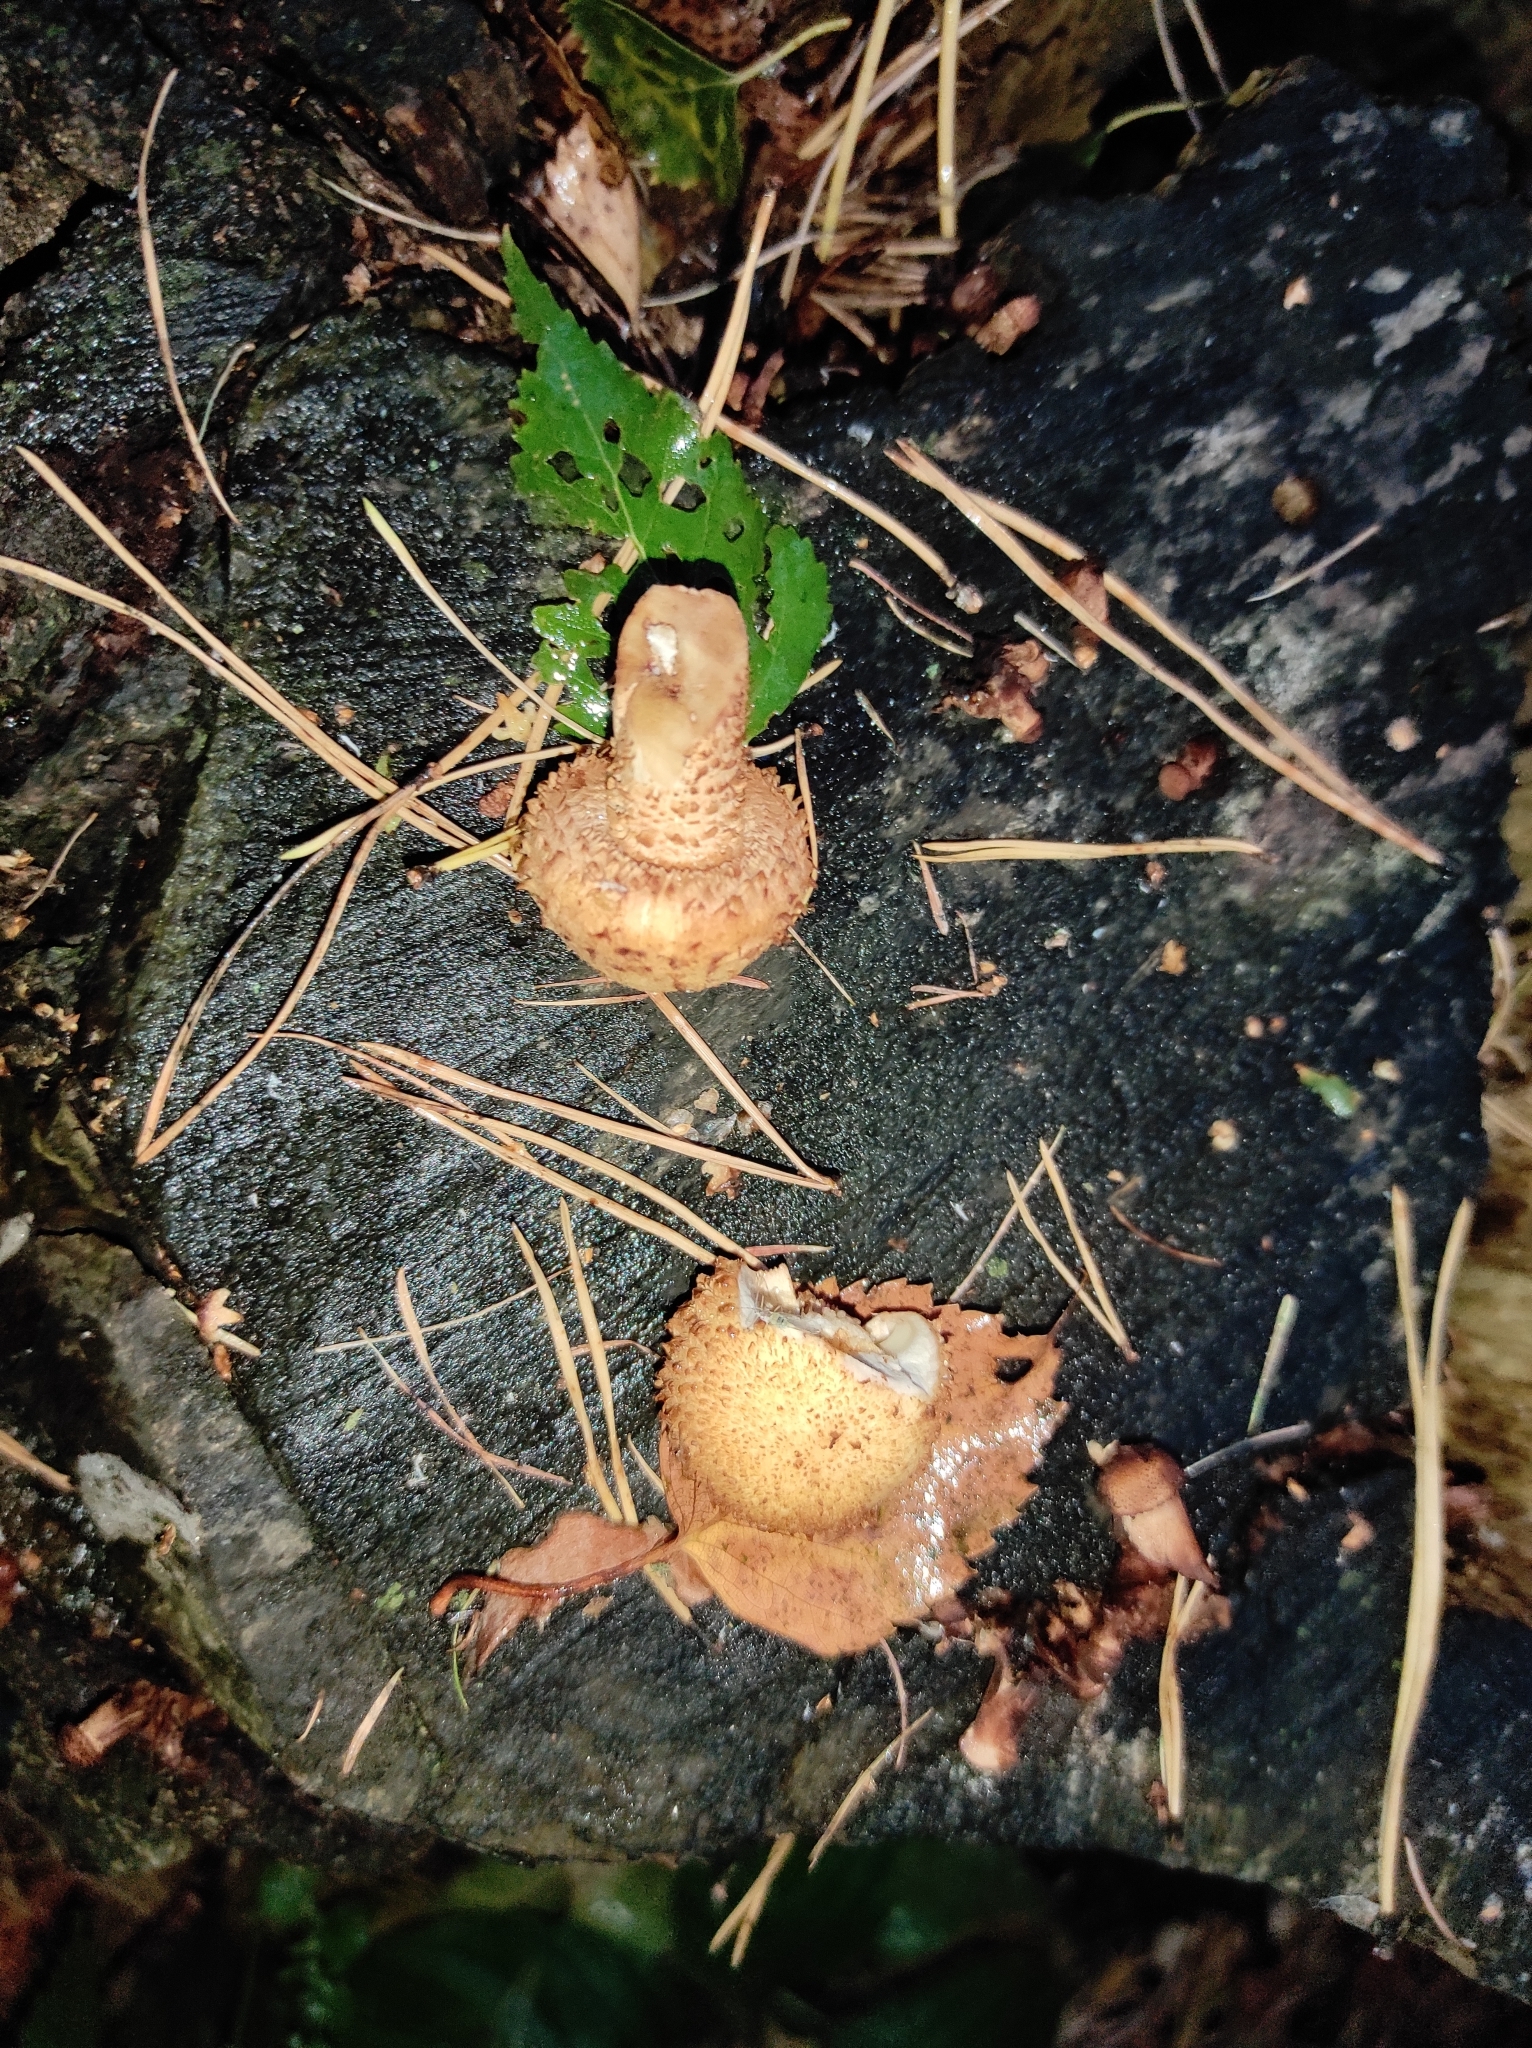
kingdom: Fungi
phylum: Basidiomycota
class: Agaricomycetes
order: Agaricales
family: Strophariaceae
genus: Pholiota
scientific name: Pholiota squarrosa
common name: Shaggy pholiota
